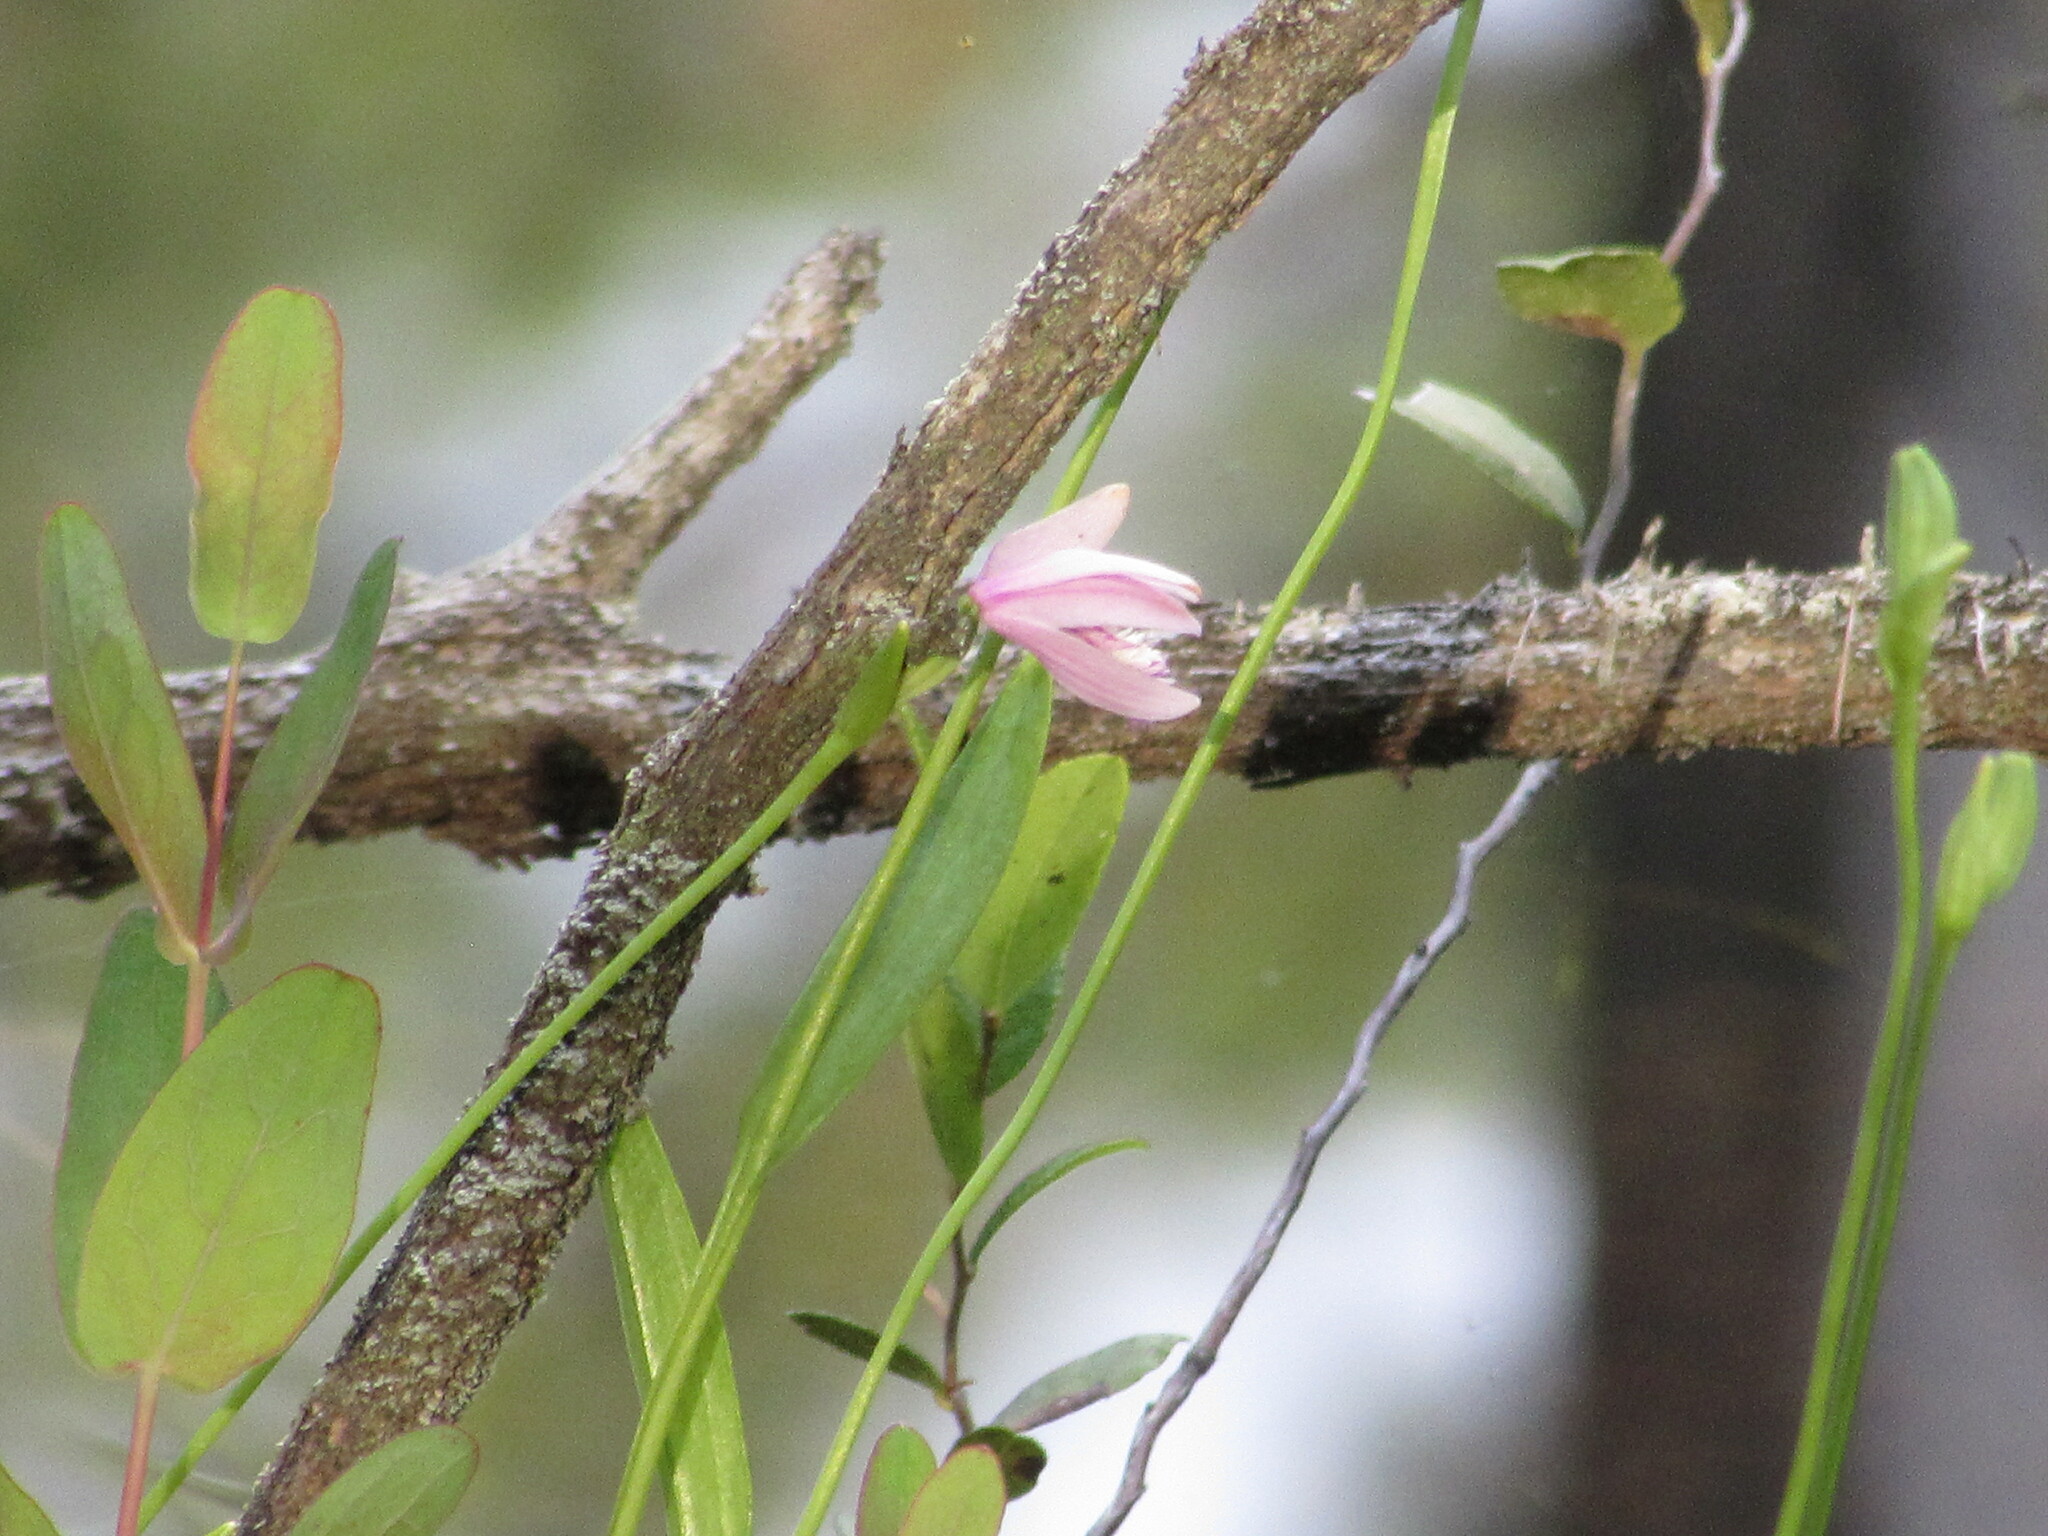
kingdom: Plantae
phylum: Tracheophyta
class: Liliopsida
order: Asparagales
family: Orchidaceae
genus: Pogonia
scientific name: Pogonia ophioglossoides
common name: Rose pogonia
